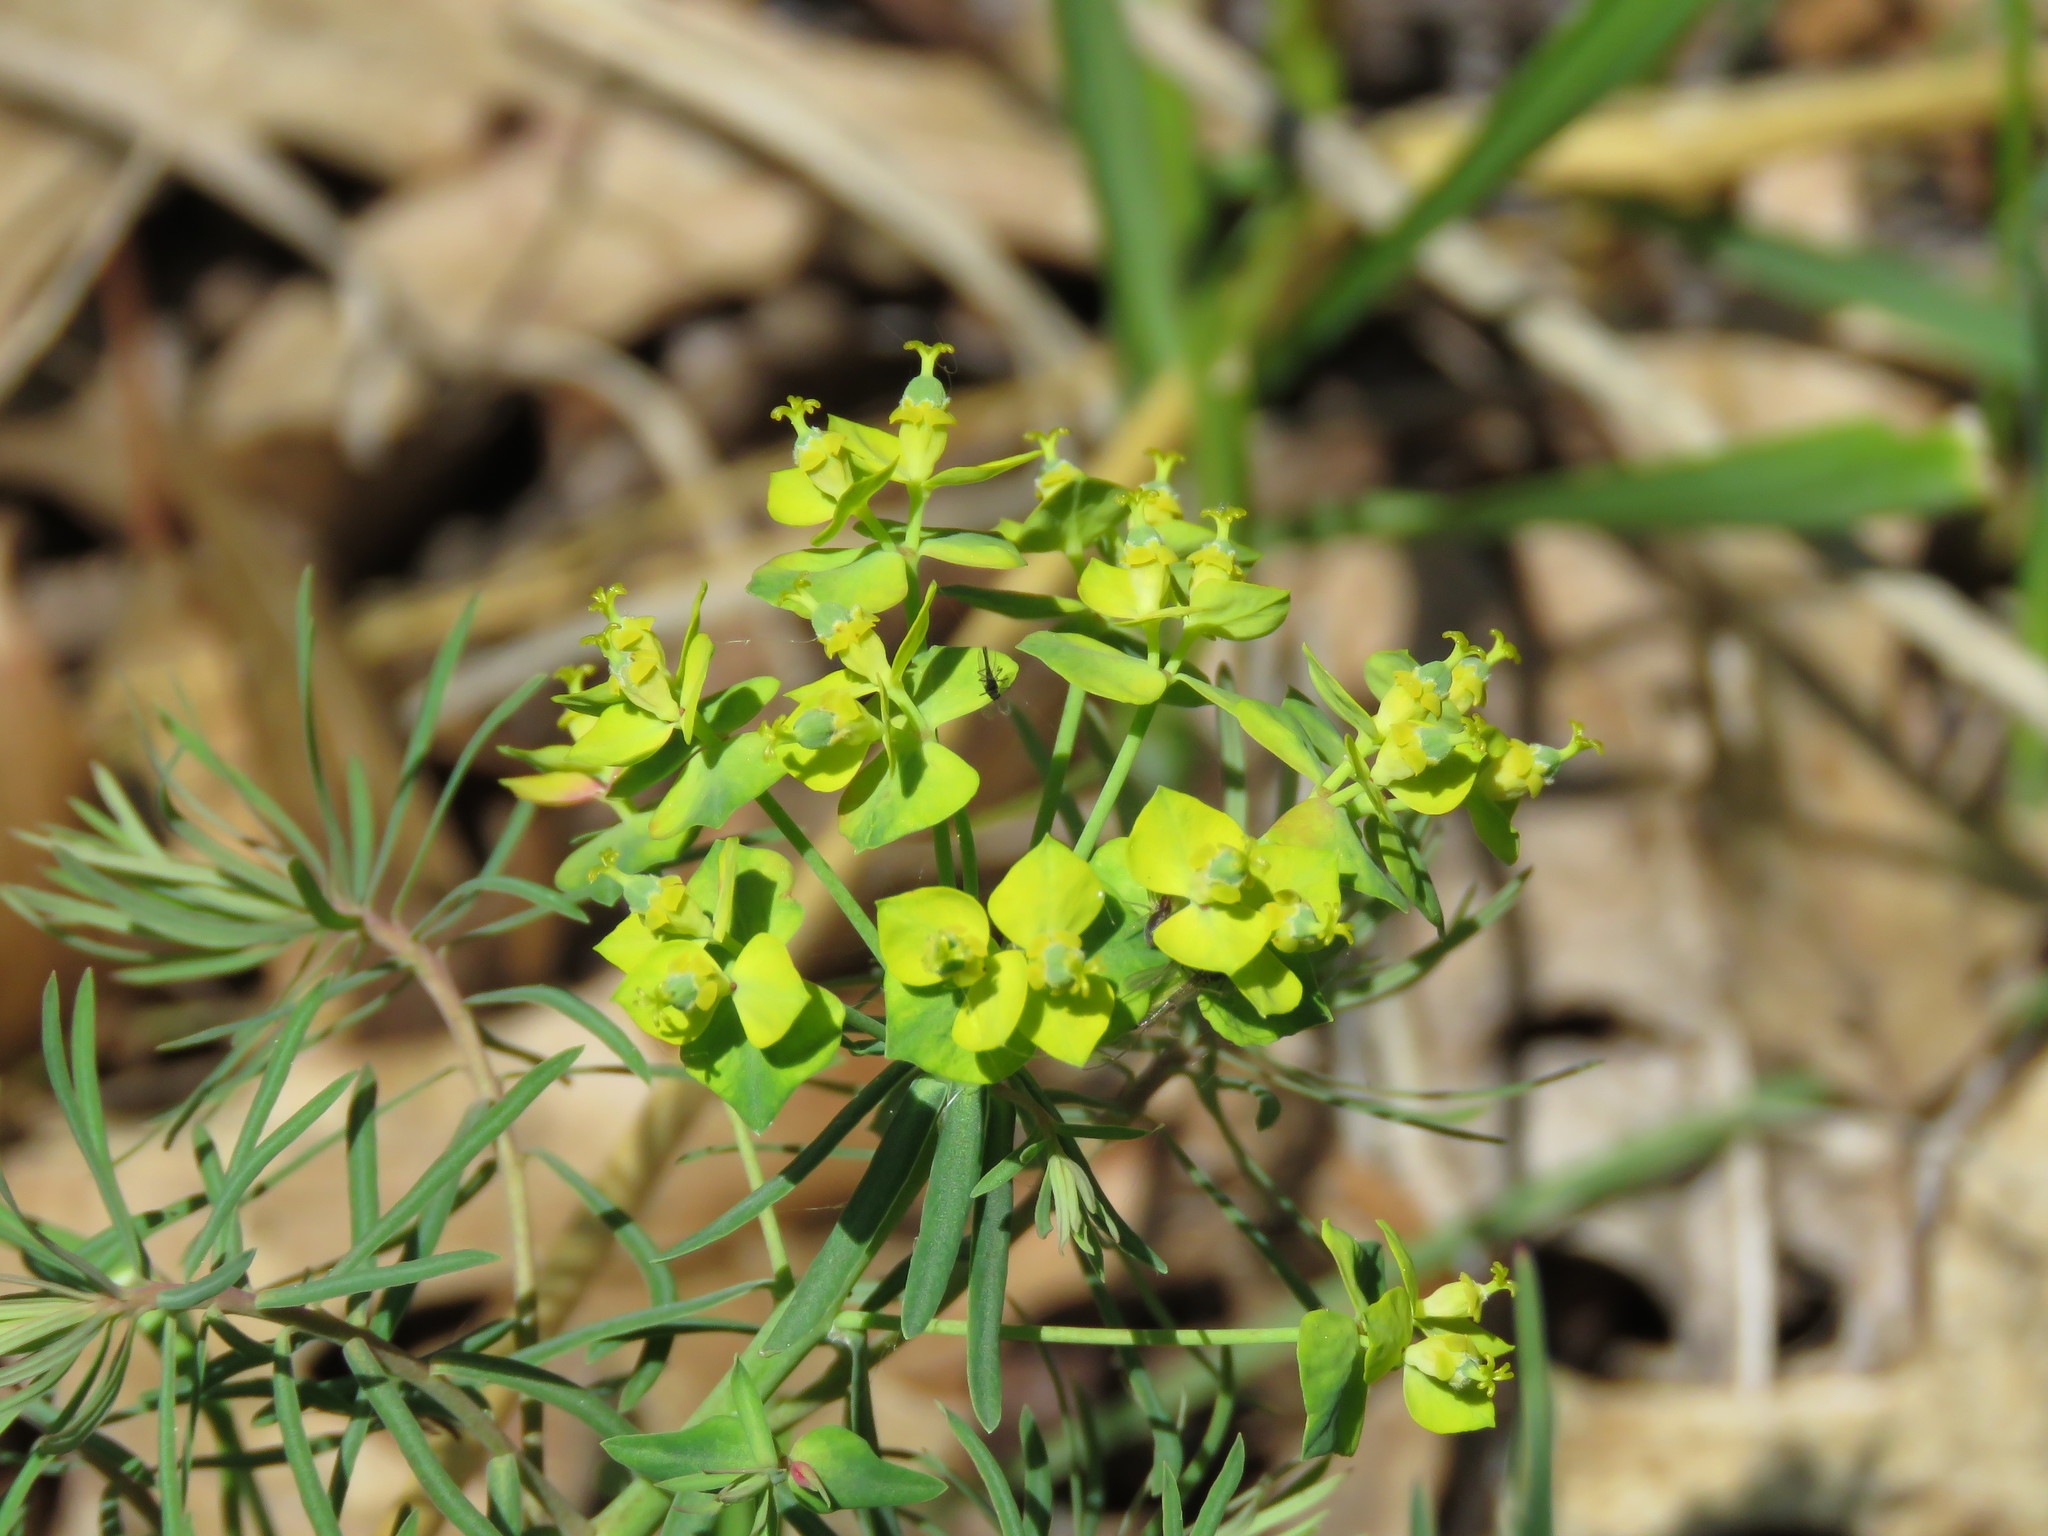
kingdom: Plantae
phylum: Tracheophyta
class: Magnoliopsida
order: Malpighiales
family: Euphorbiaceae
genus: Euphorbia
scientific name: Euphorbia cyparissias
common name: Cypress spurge
